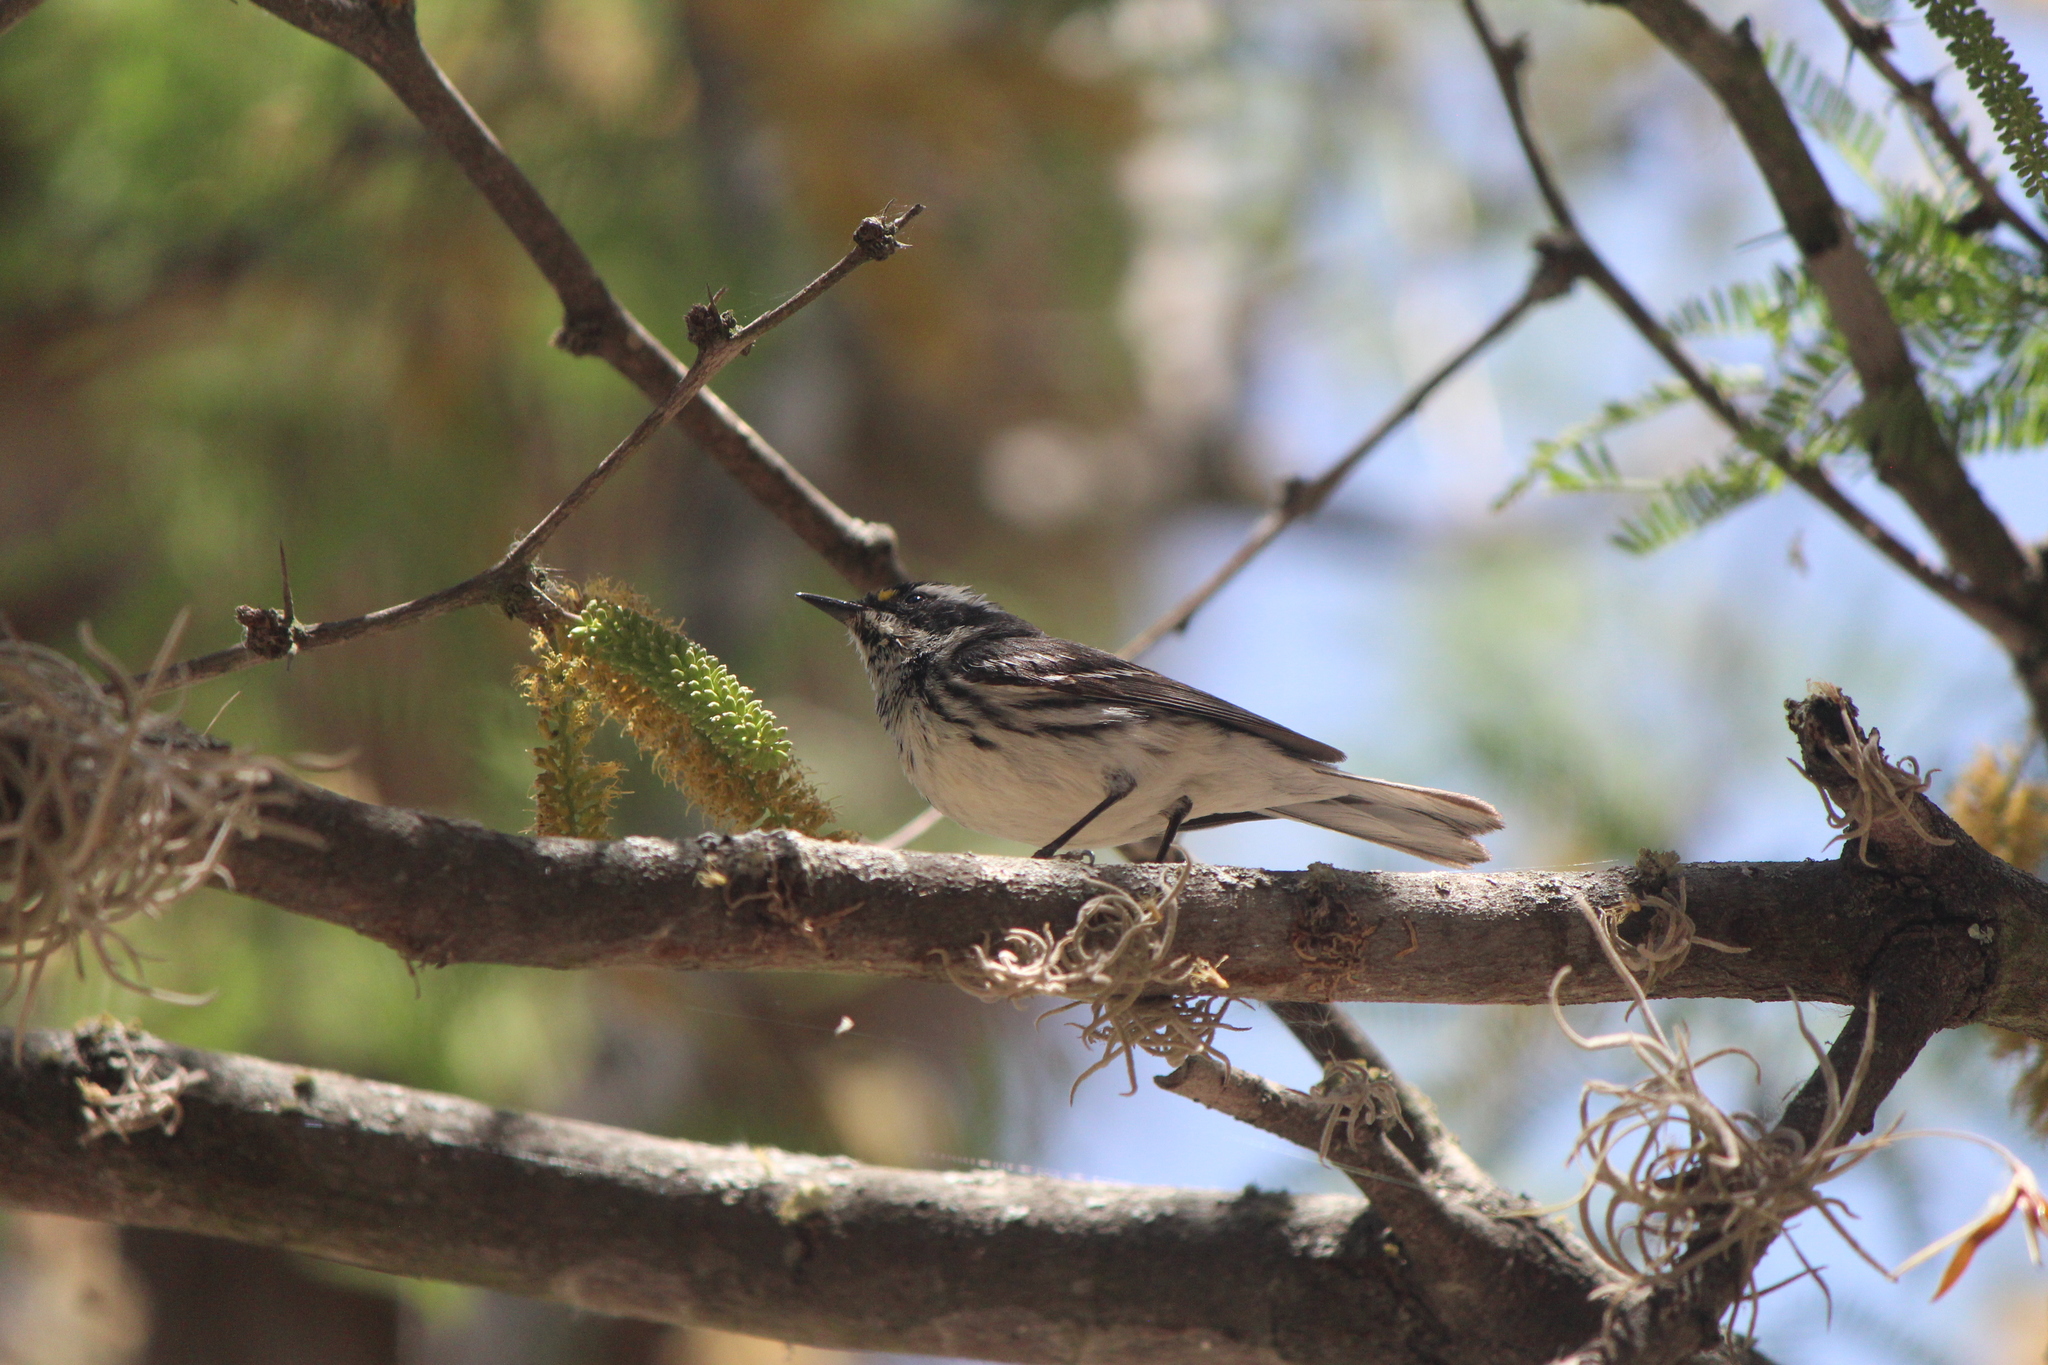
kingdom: Animalia
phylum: Chordata
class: Aves
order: Passeriformes
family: Parulidae
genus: Setophaga
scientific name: Setophaga nigrescens
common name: Black-throated gray warbler
